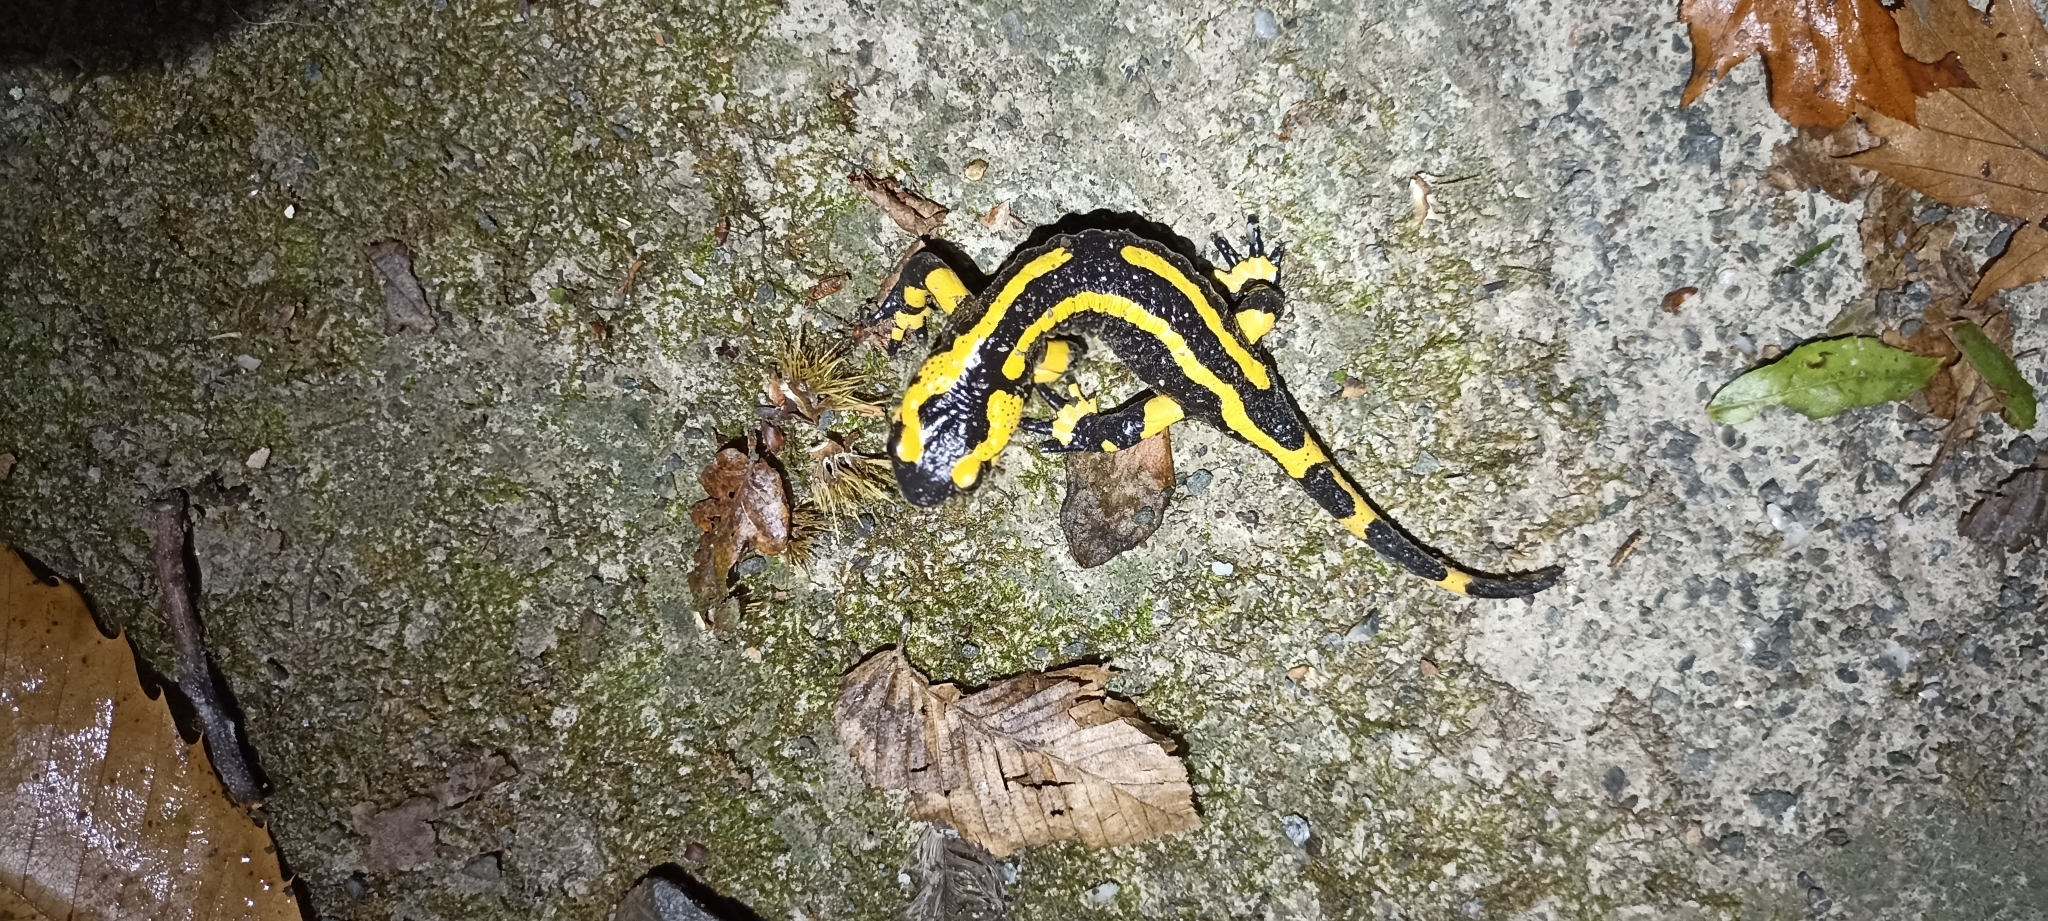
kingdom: Animalia
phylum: Chordata
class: Amphibia
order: Caudata
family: Salamandridae
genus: Salamandra
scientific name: Salamandra salamandra
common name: Fire salamander
